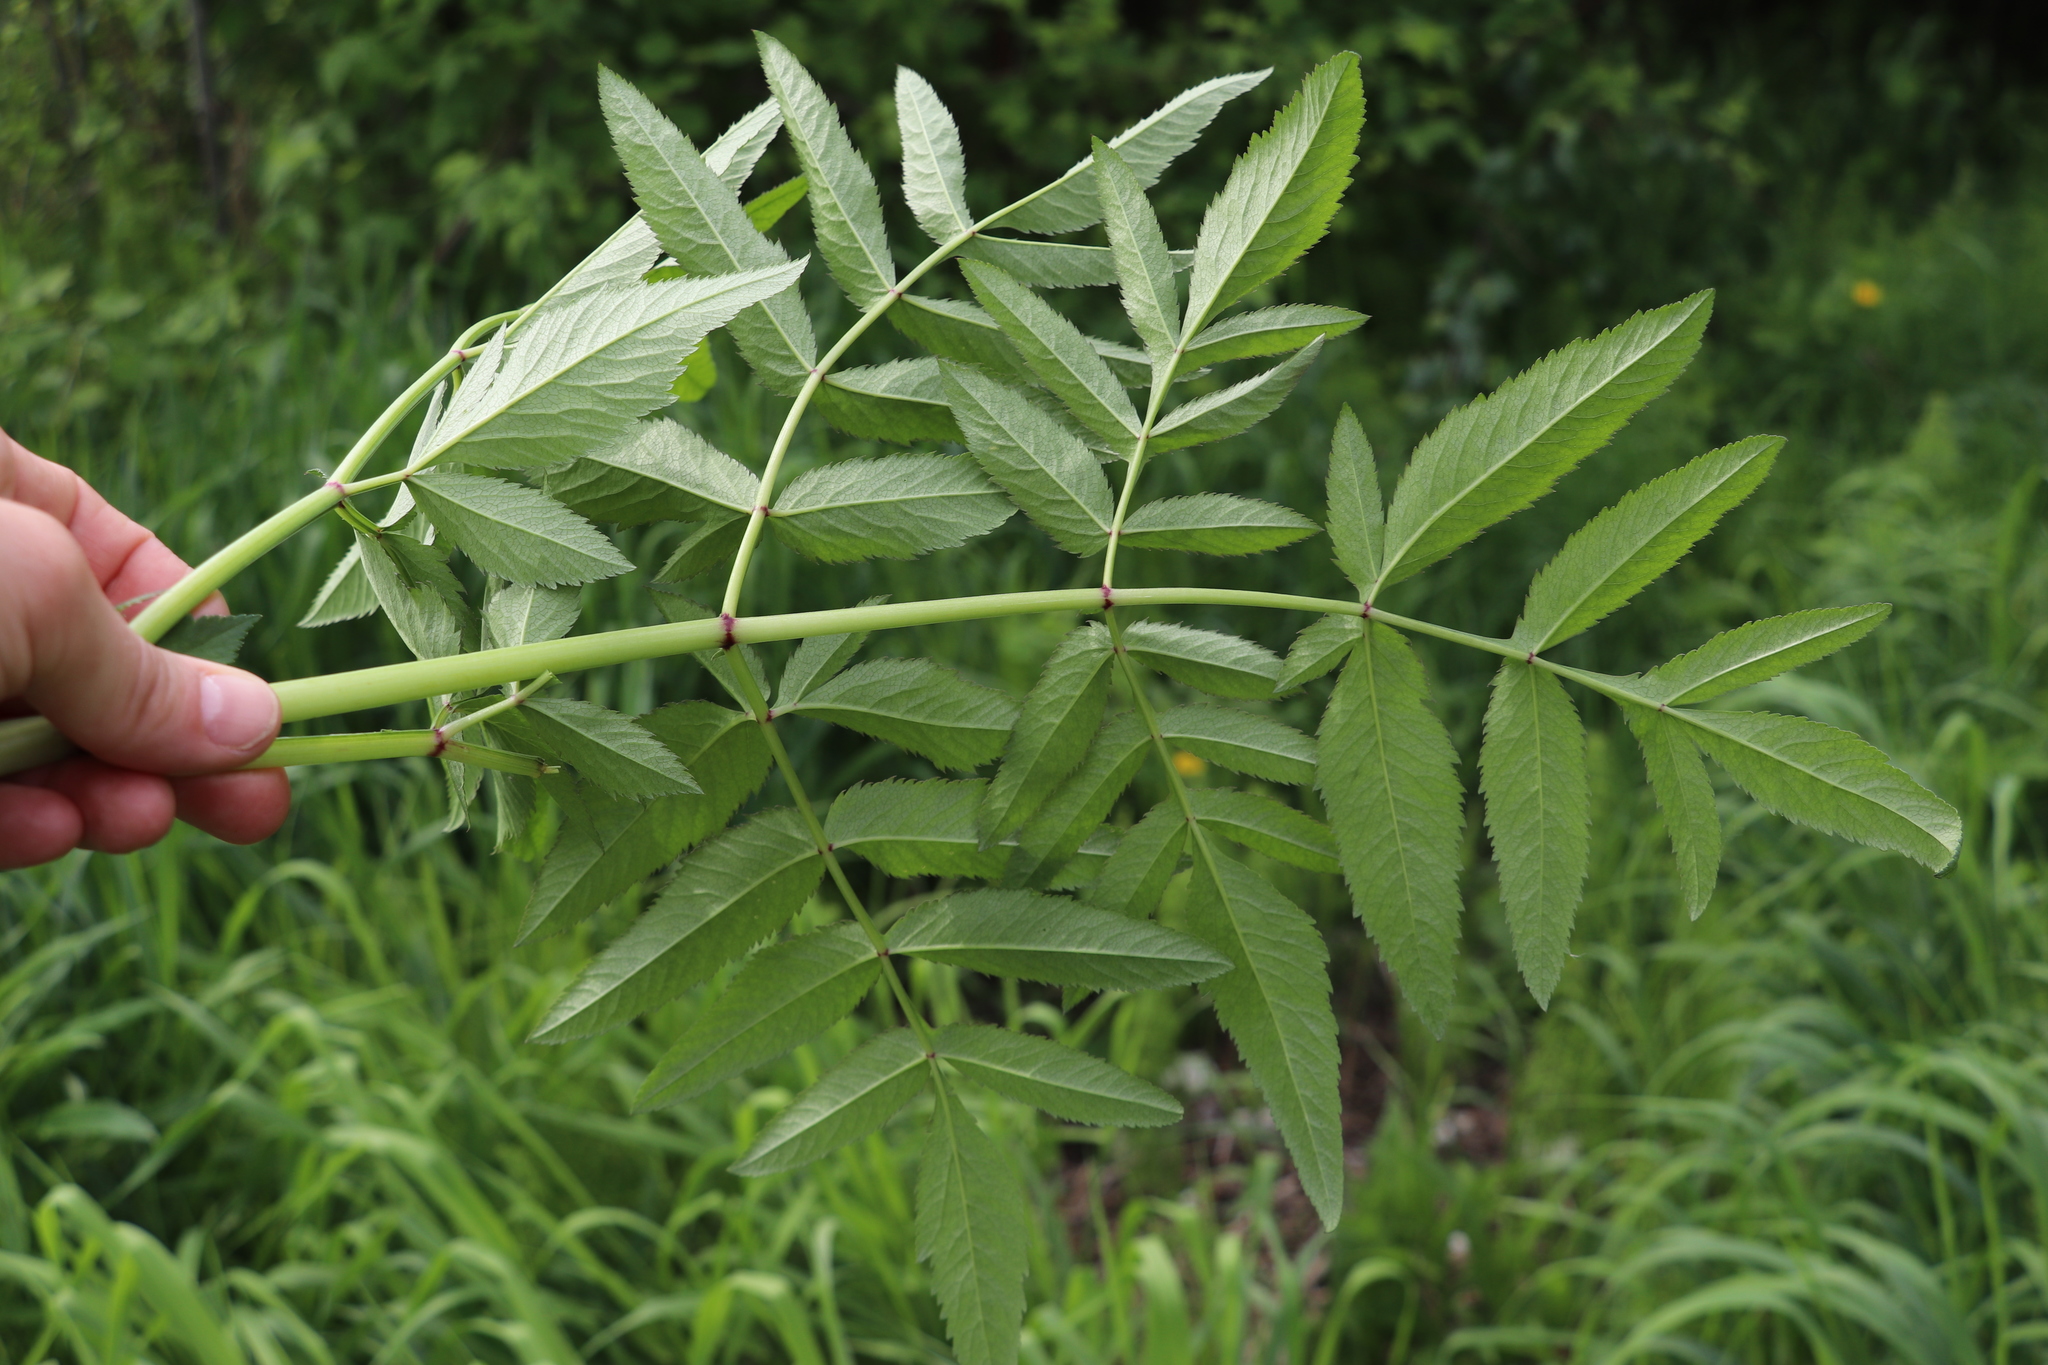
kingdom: Plantae
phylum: Tracheophyta
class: Magnoliopsida
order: Apiales
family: Apiaceae
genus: Angelica
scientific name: Angelica sylvestris
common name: Wild angelica
